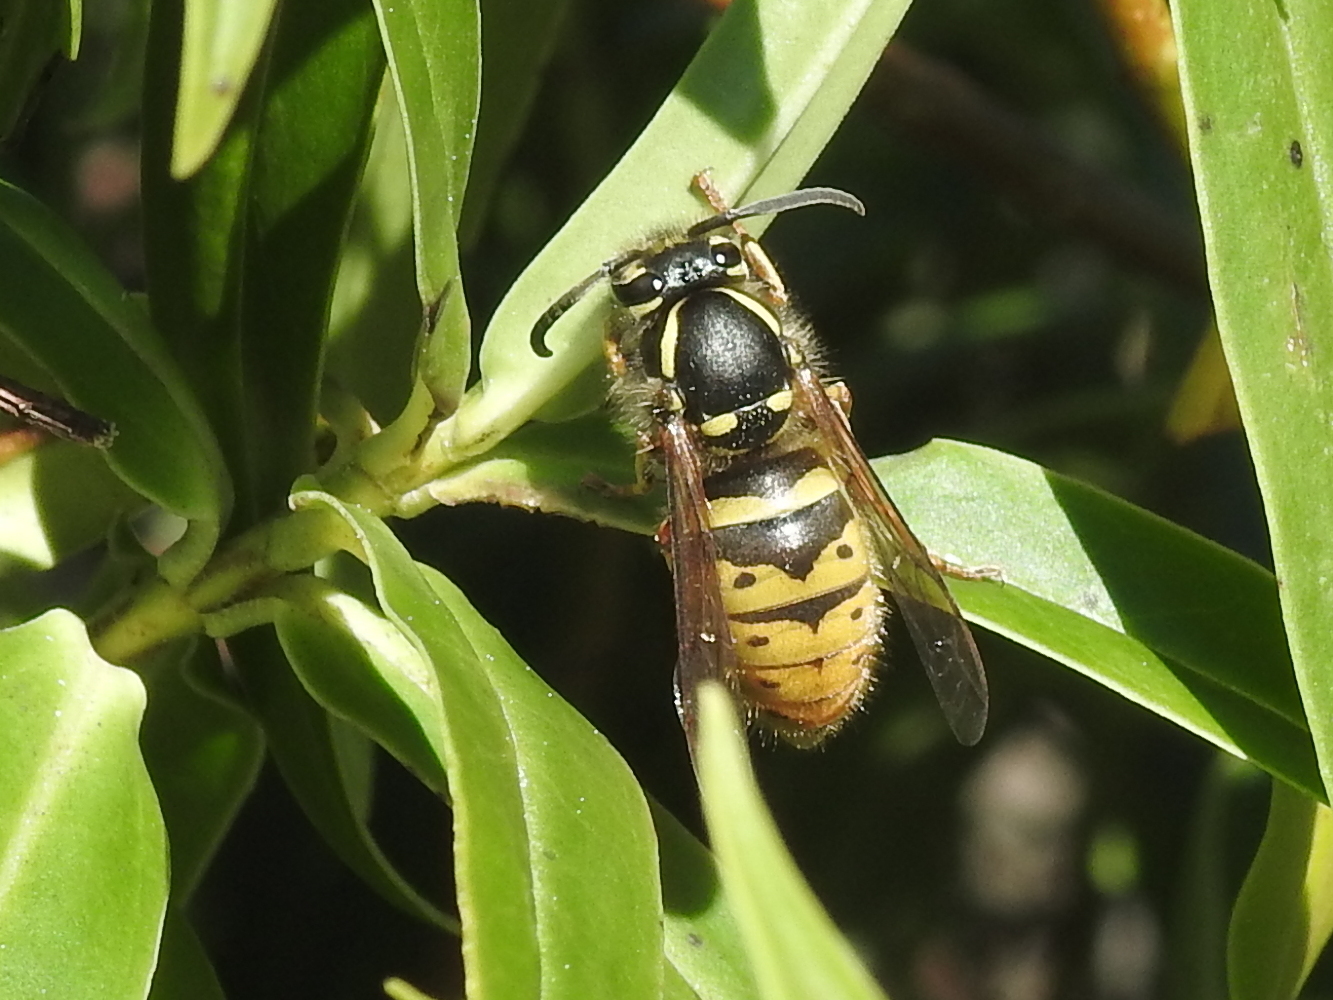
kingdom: Animalia
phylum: Arthropoda
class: Insecta
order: Hymenoptera
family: Vespidae
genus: Vespula
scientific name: Vespula vulgaris
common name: Common wasp
